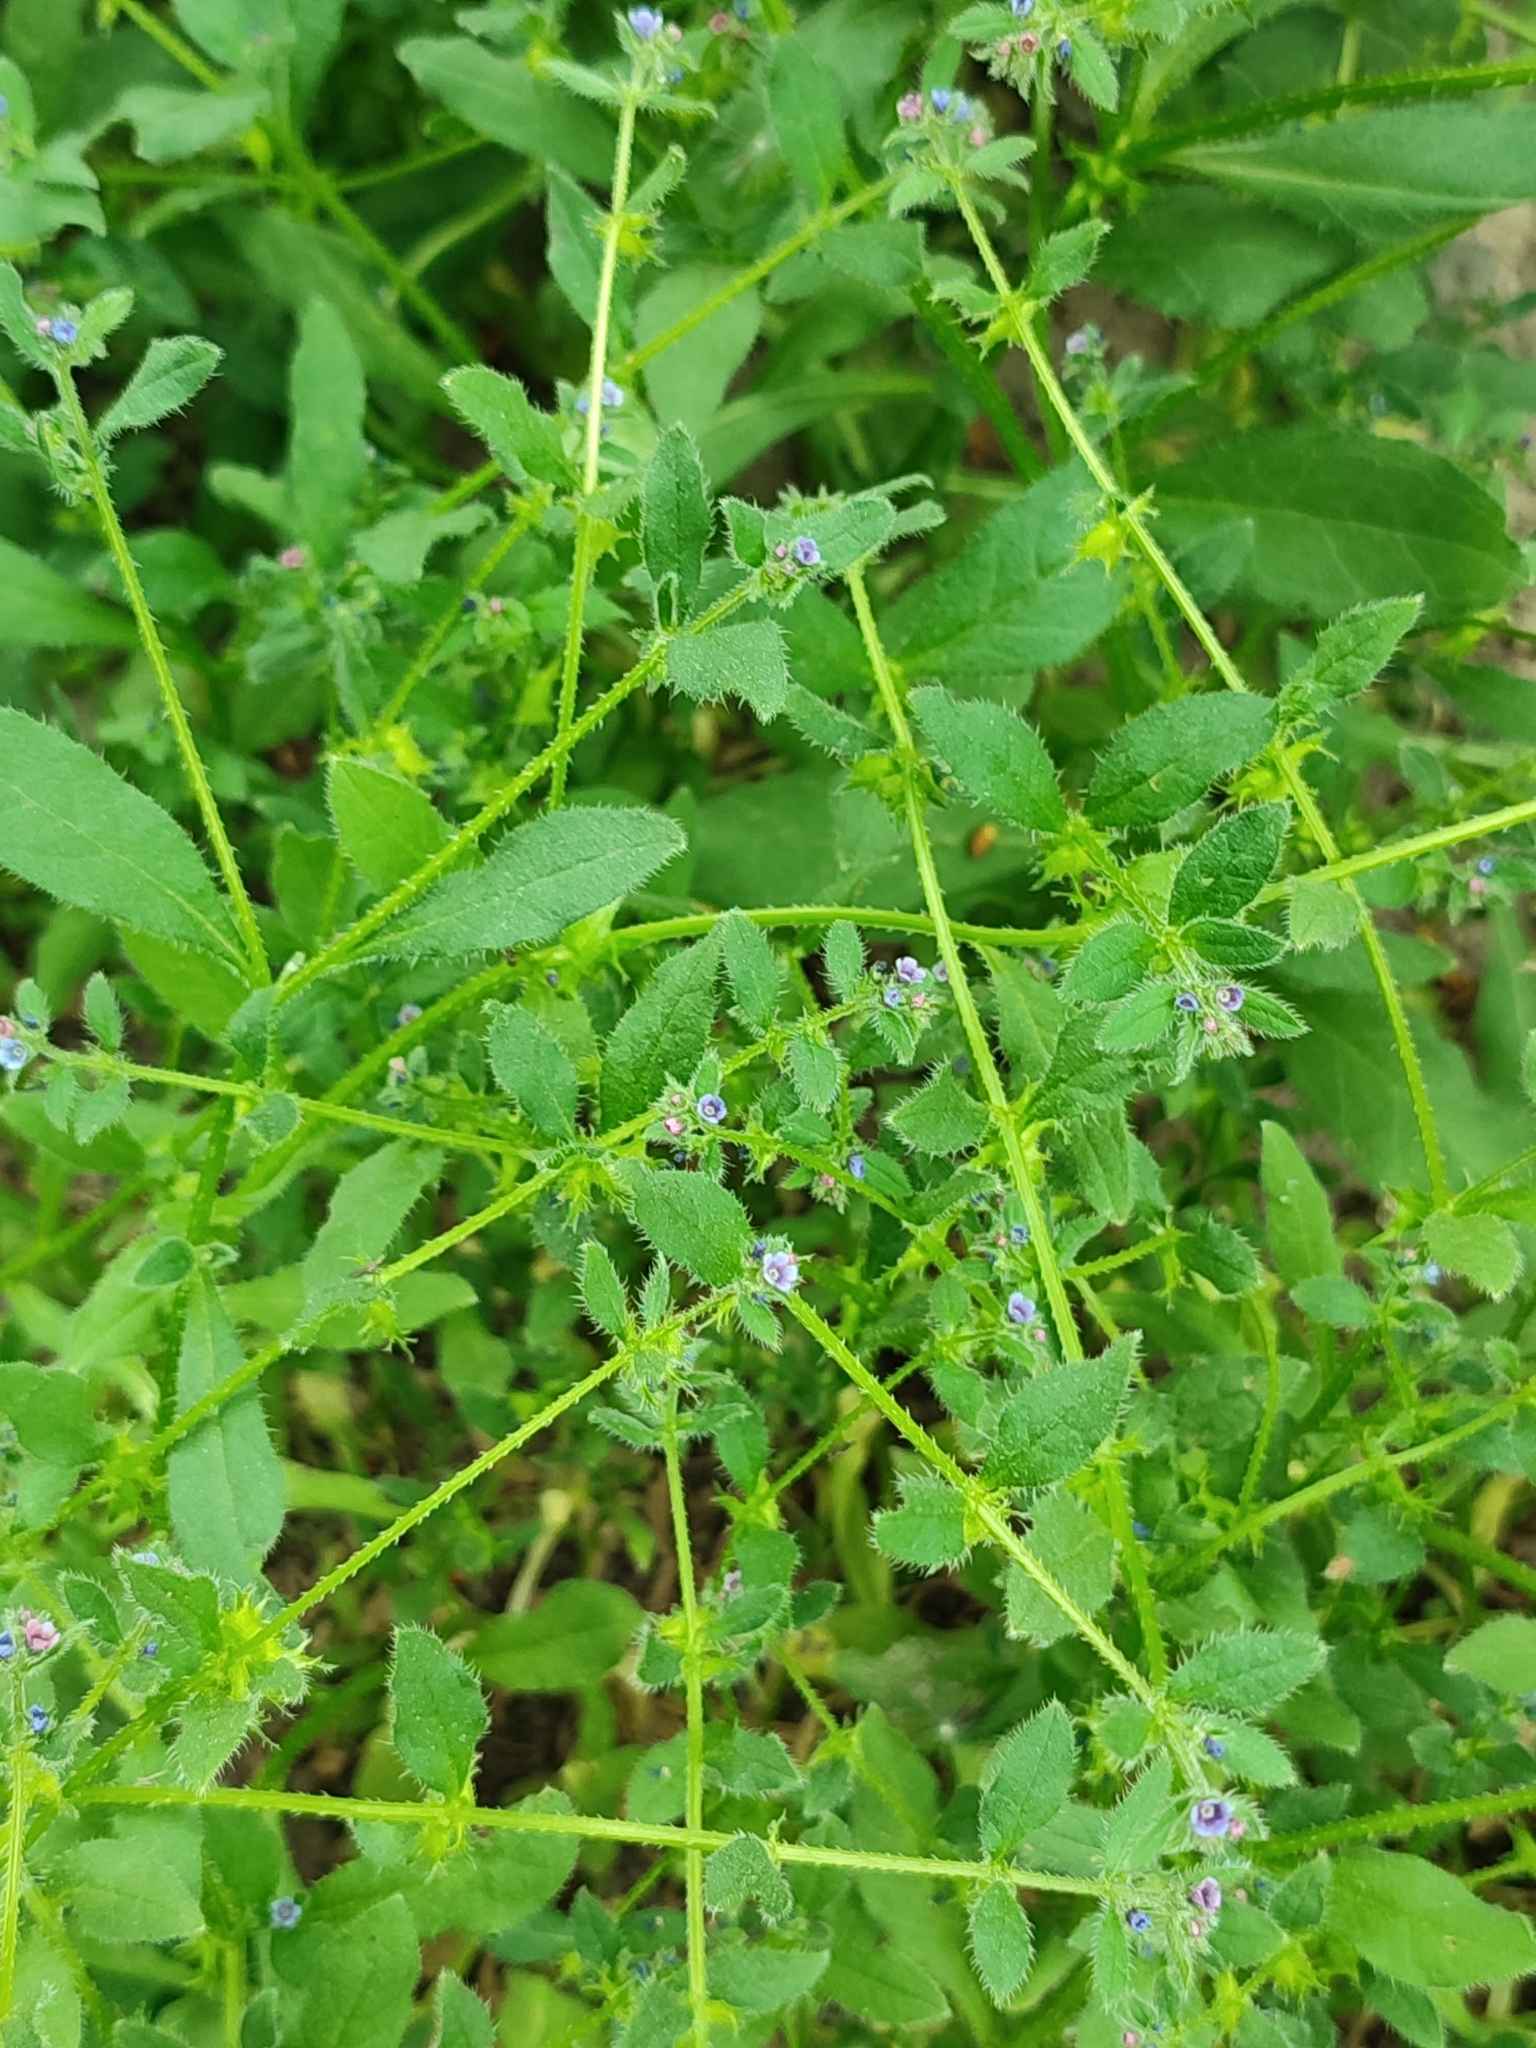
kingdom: Plantae
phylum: Tracheophyta
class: Magnoliopsida
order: Boraginales
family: Boraginaceae
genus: Asperugo
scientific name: Asperugo procumbens
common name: Madwort
